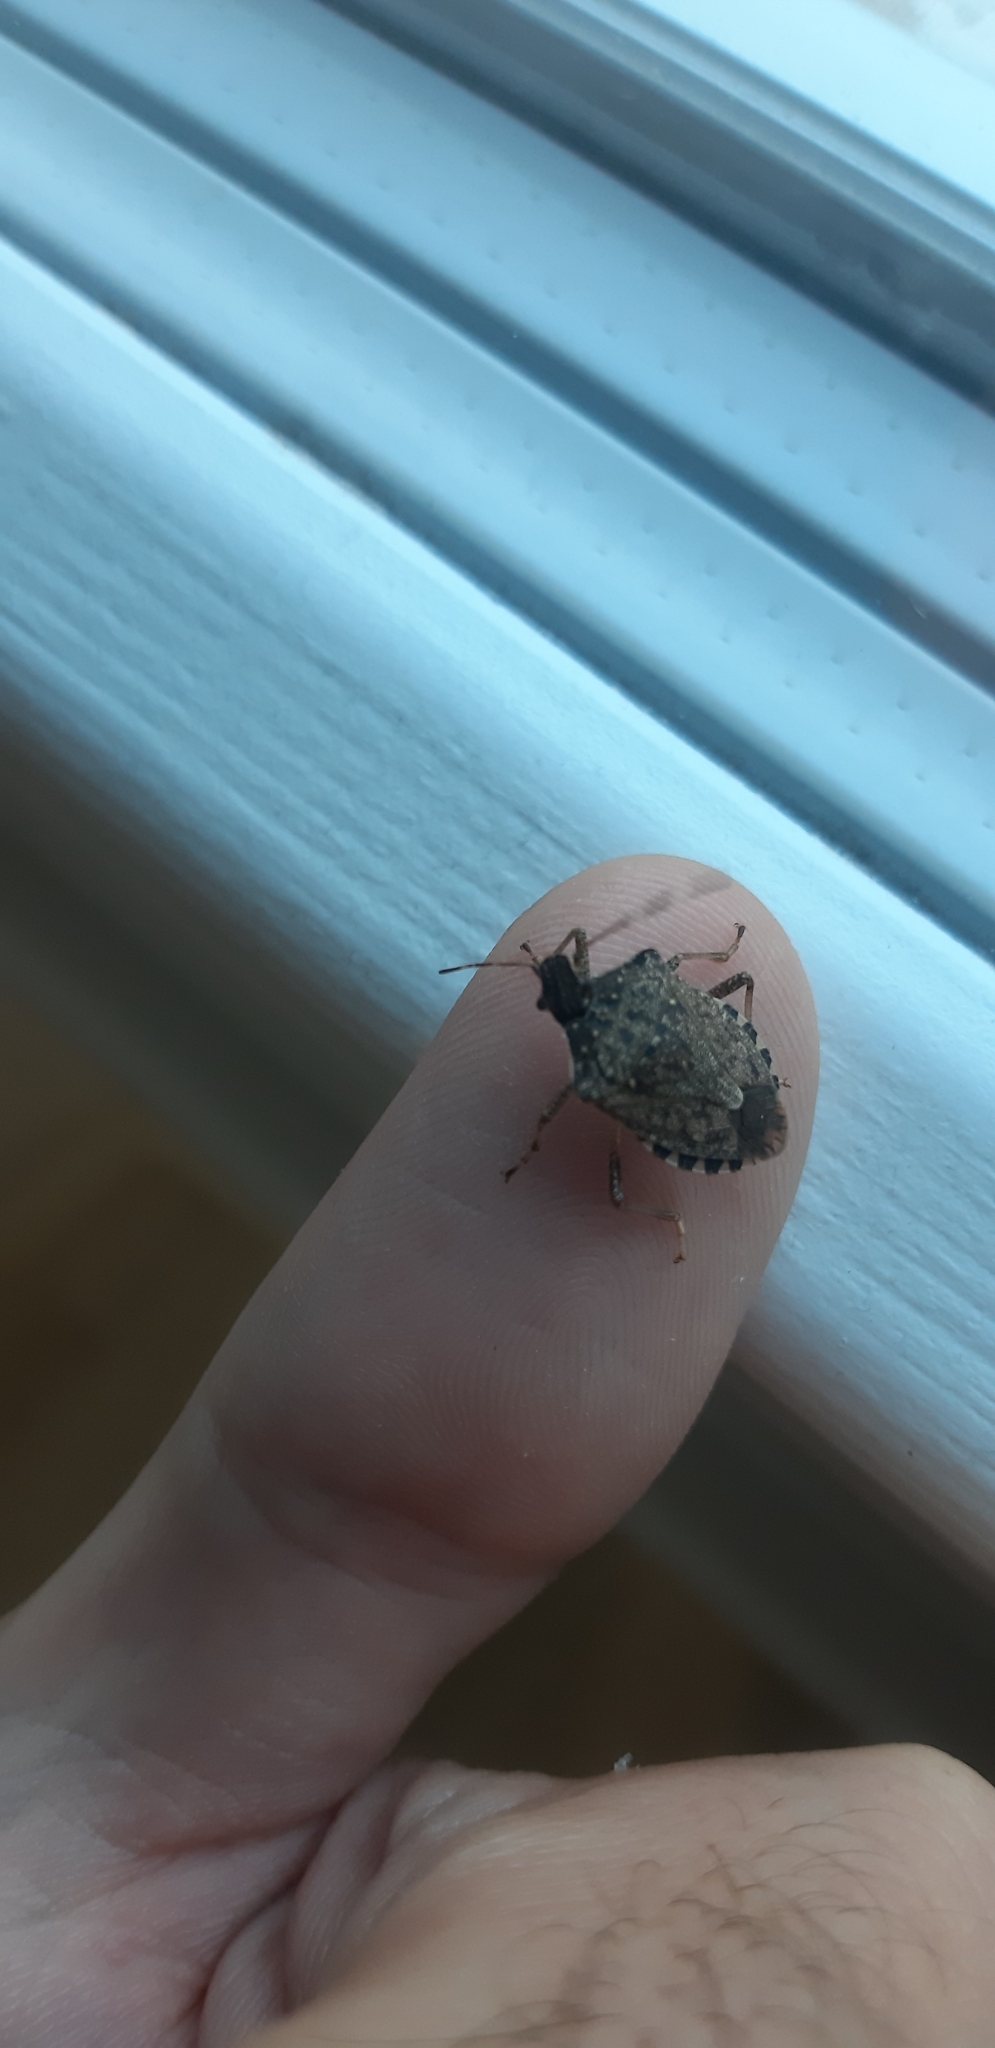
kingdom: Animalia
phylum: Arthropoda
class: Insecta
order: Hemiptera
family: Pentatomidae
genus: Halyomorpha
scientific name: Halyomorpha halys
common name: Brown marmorated stink bug
